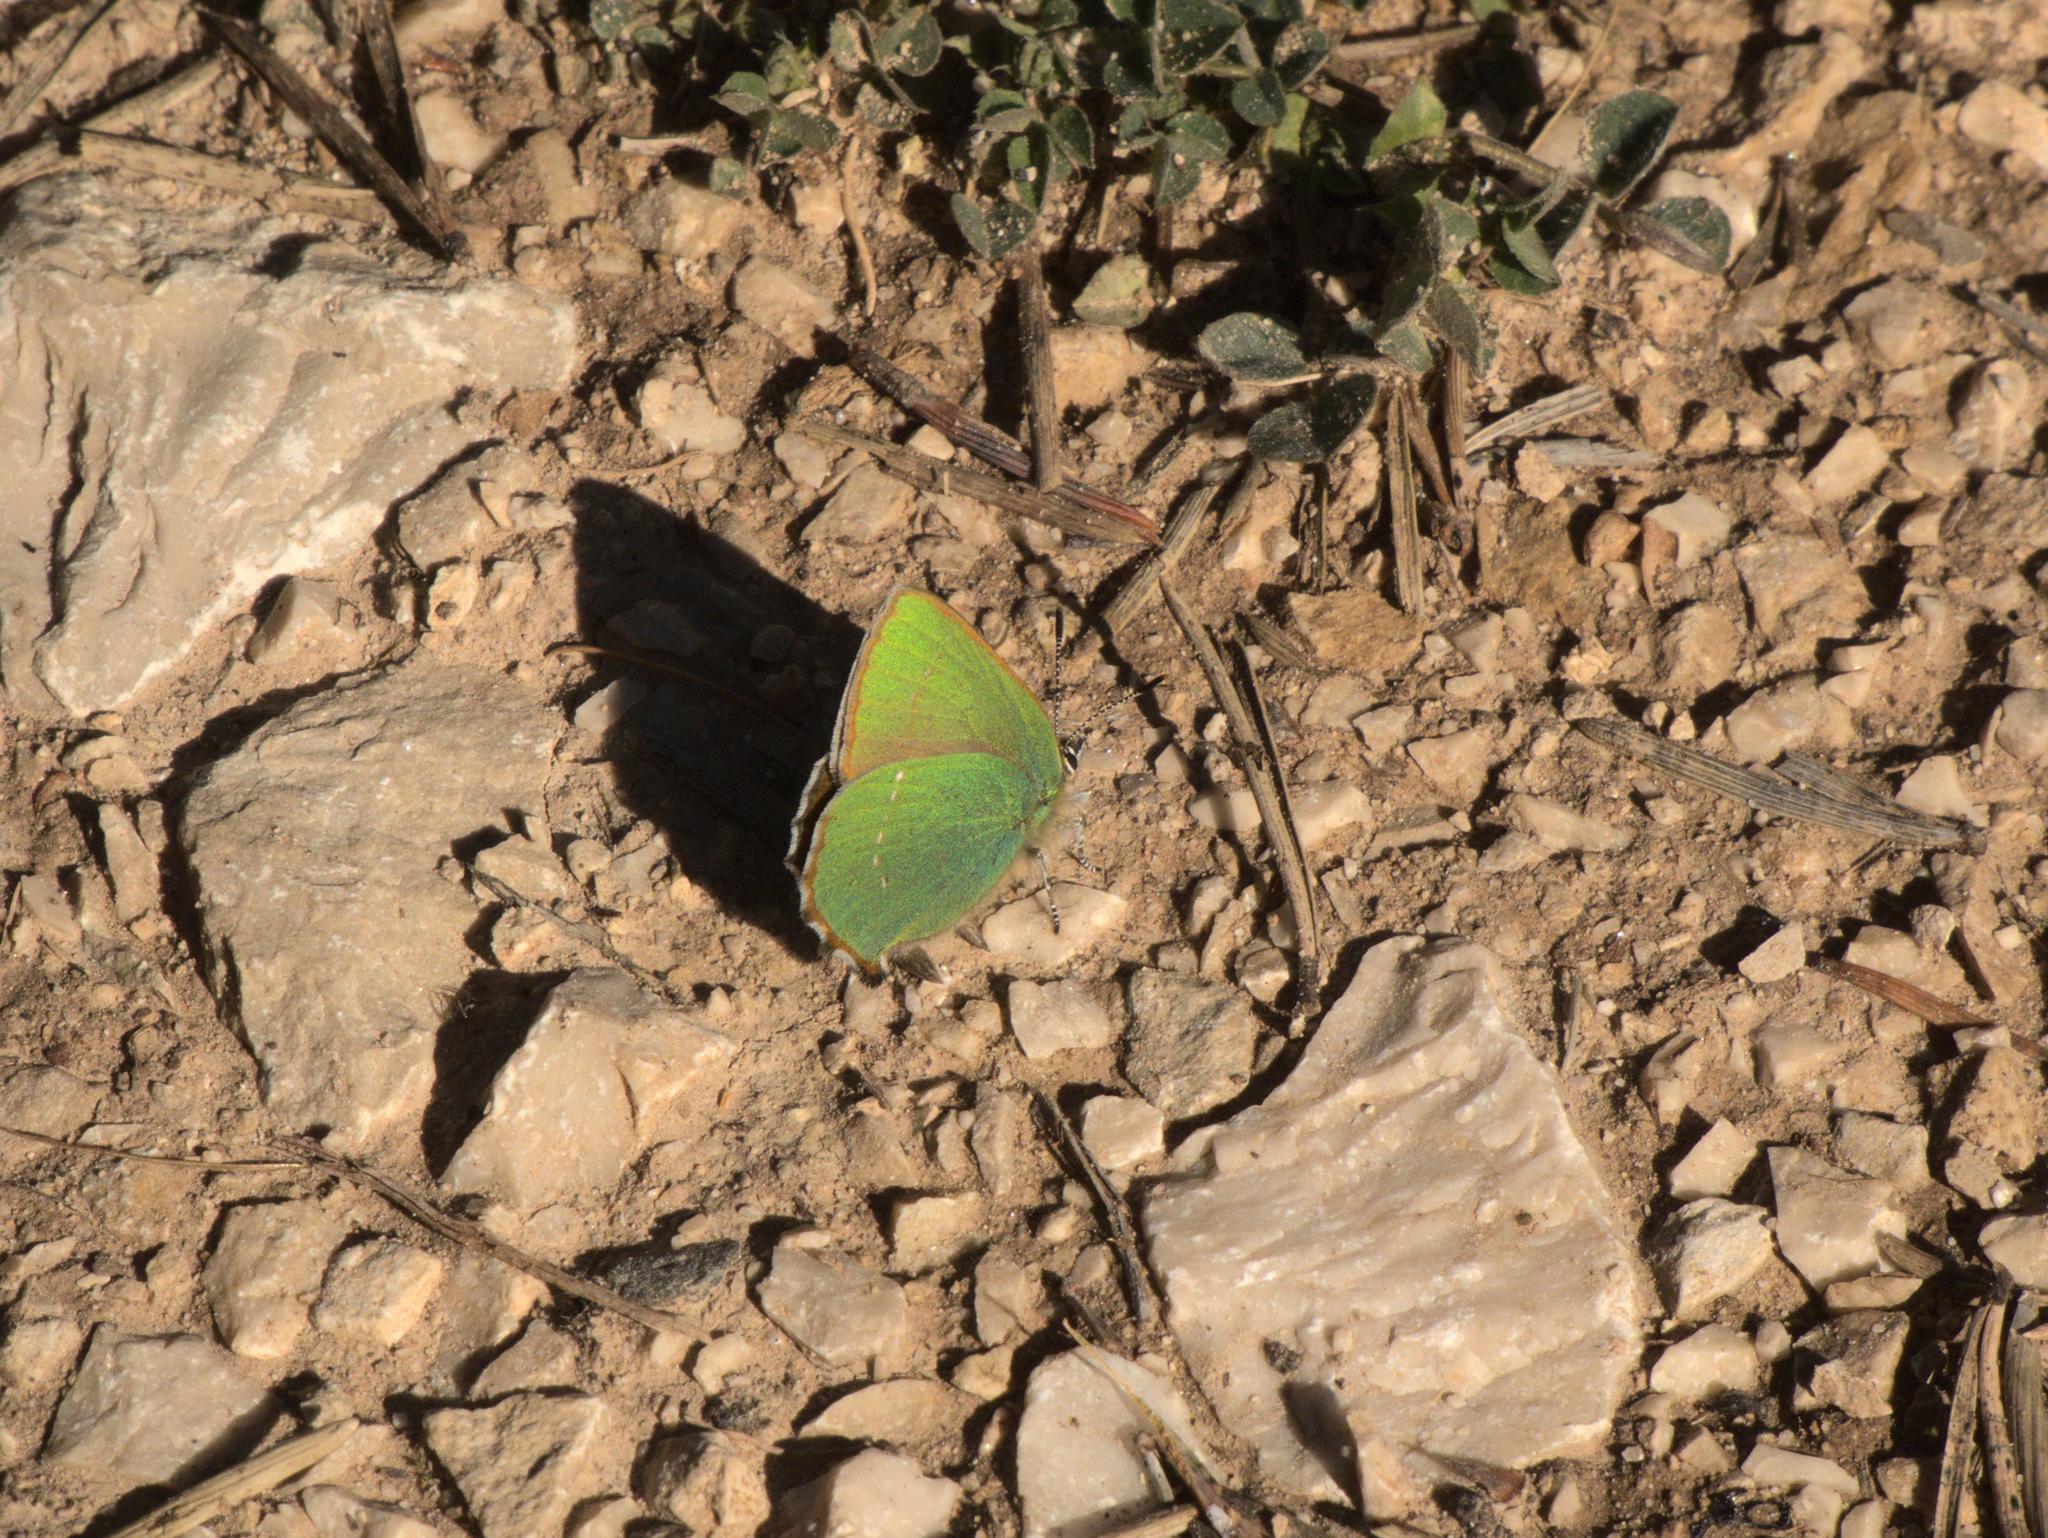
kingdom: Animalia
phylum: Arthropoda
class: Insecta
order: Lepidoptera
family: Lycaenidae
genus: Callophrys
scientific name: Callophrys rubi
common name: Green hairstreak
